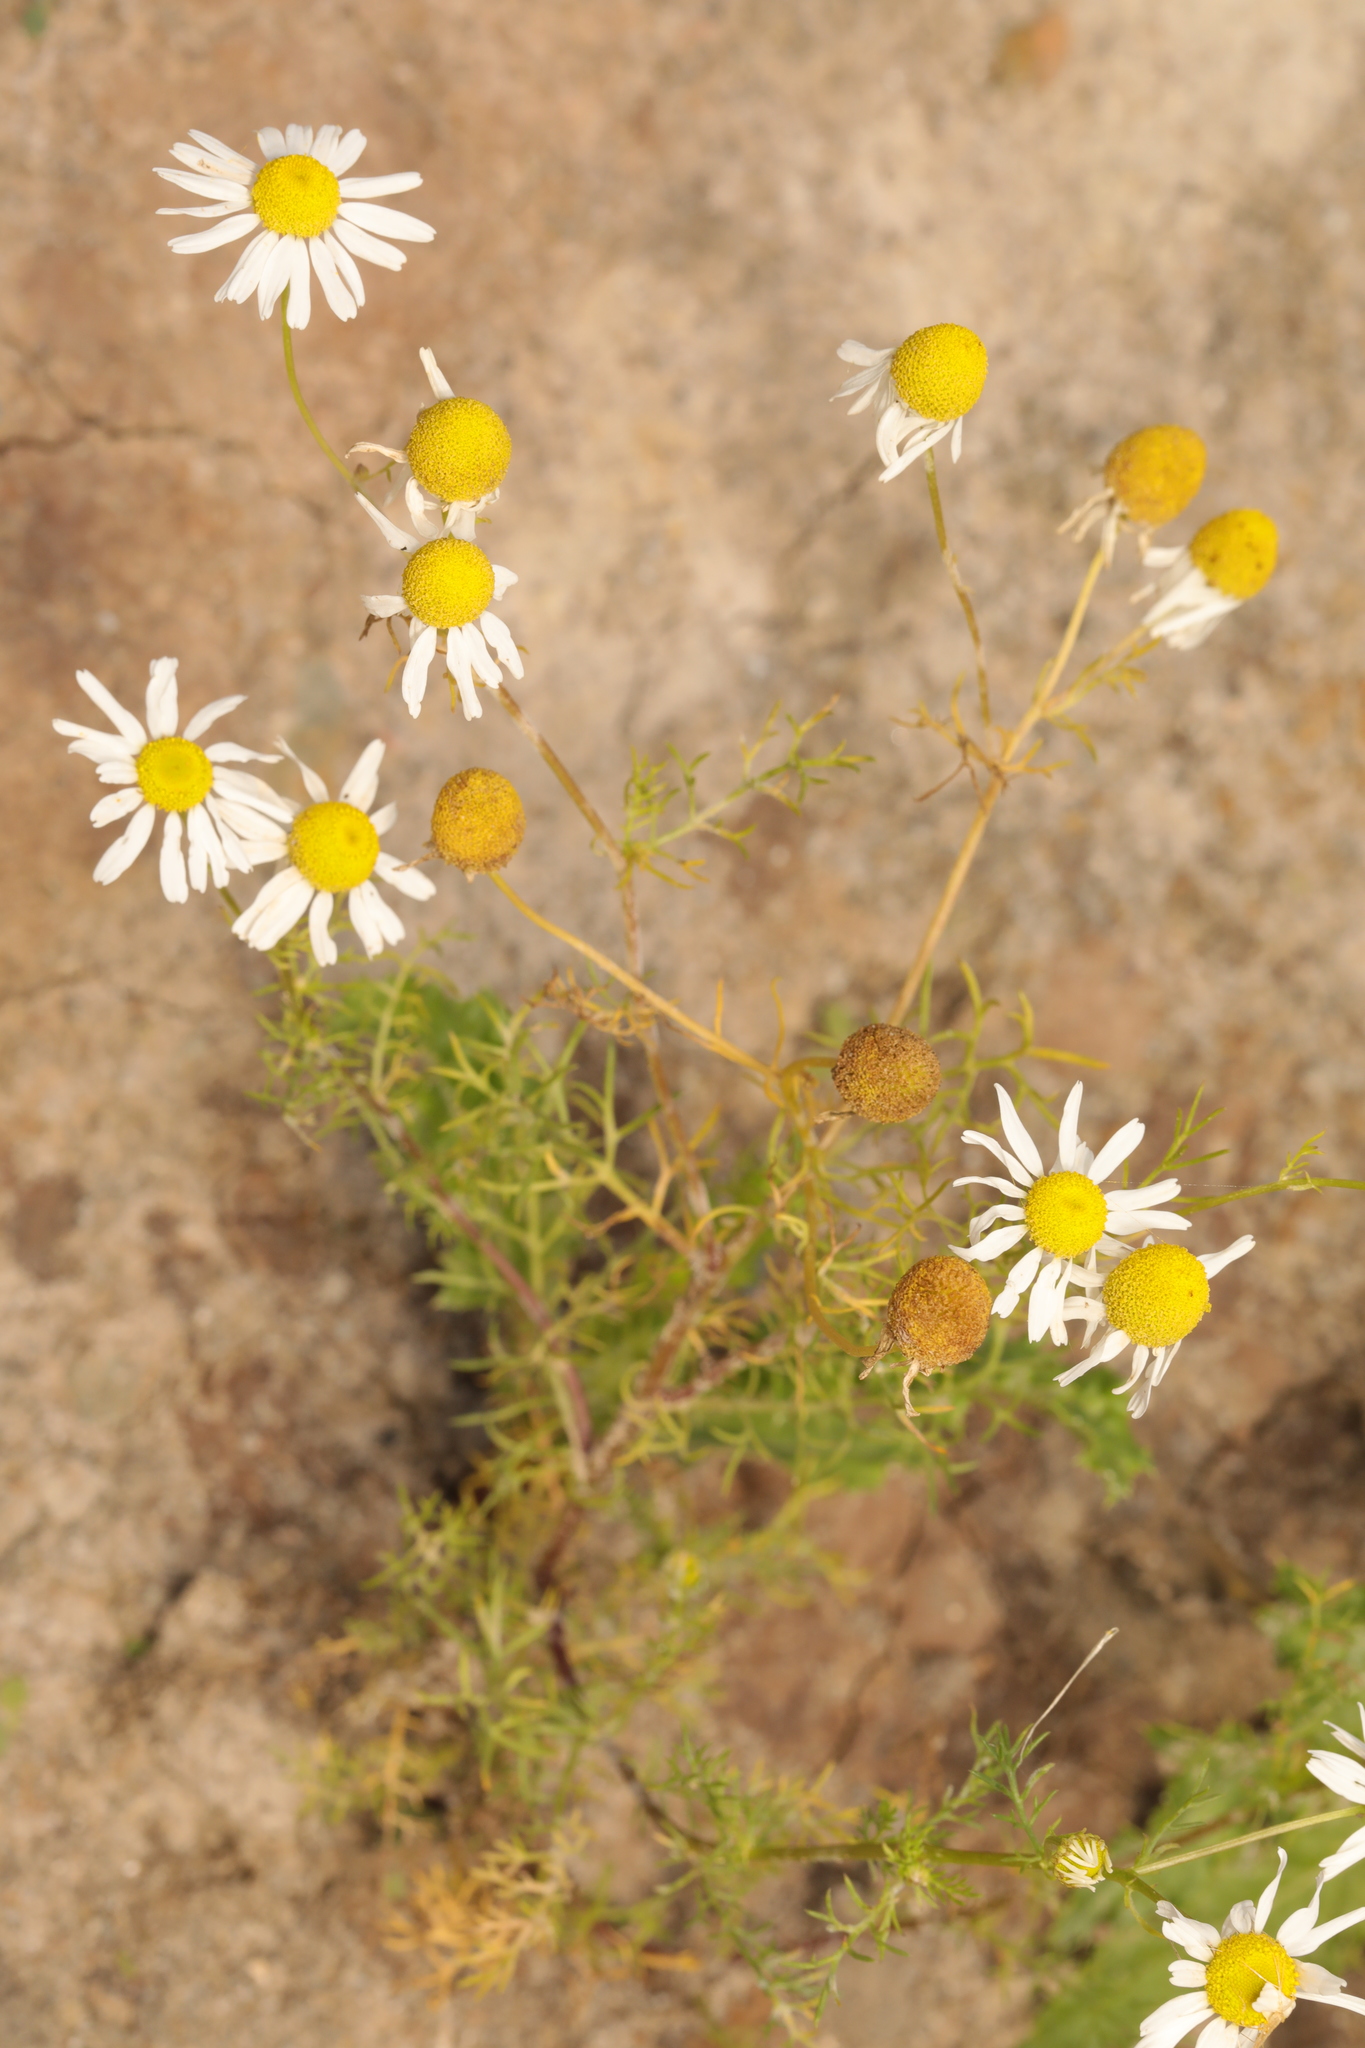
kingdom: Plantae
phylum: Tracheophyta
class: Magnoliopsida
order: Asterales
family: Asteraceae
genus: Matricaria
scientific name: Matricaria chamomilla
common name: Scented mayweed
